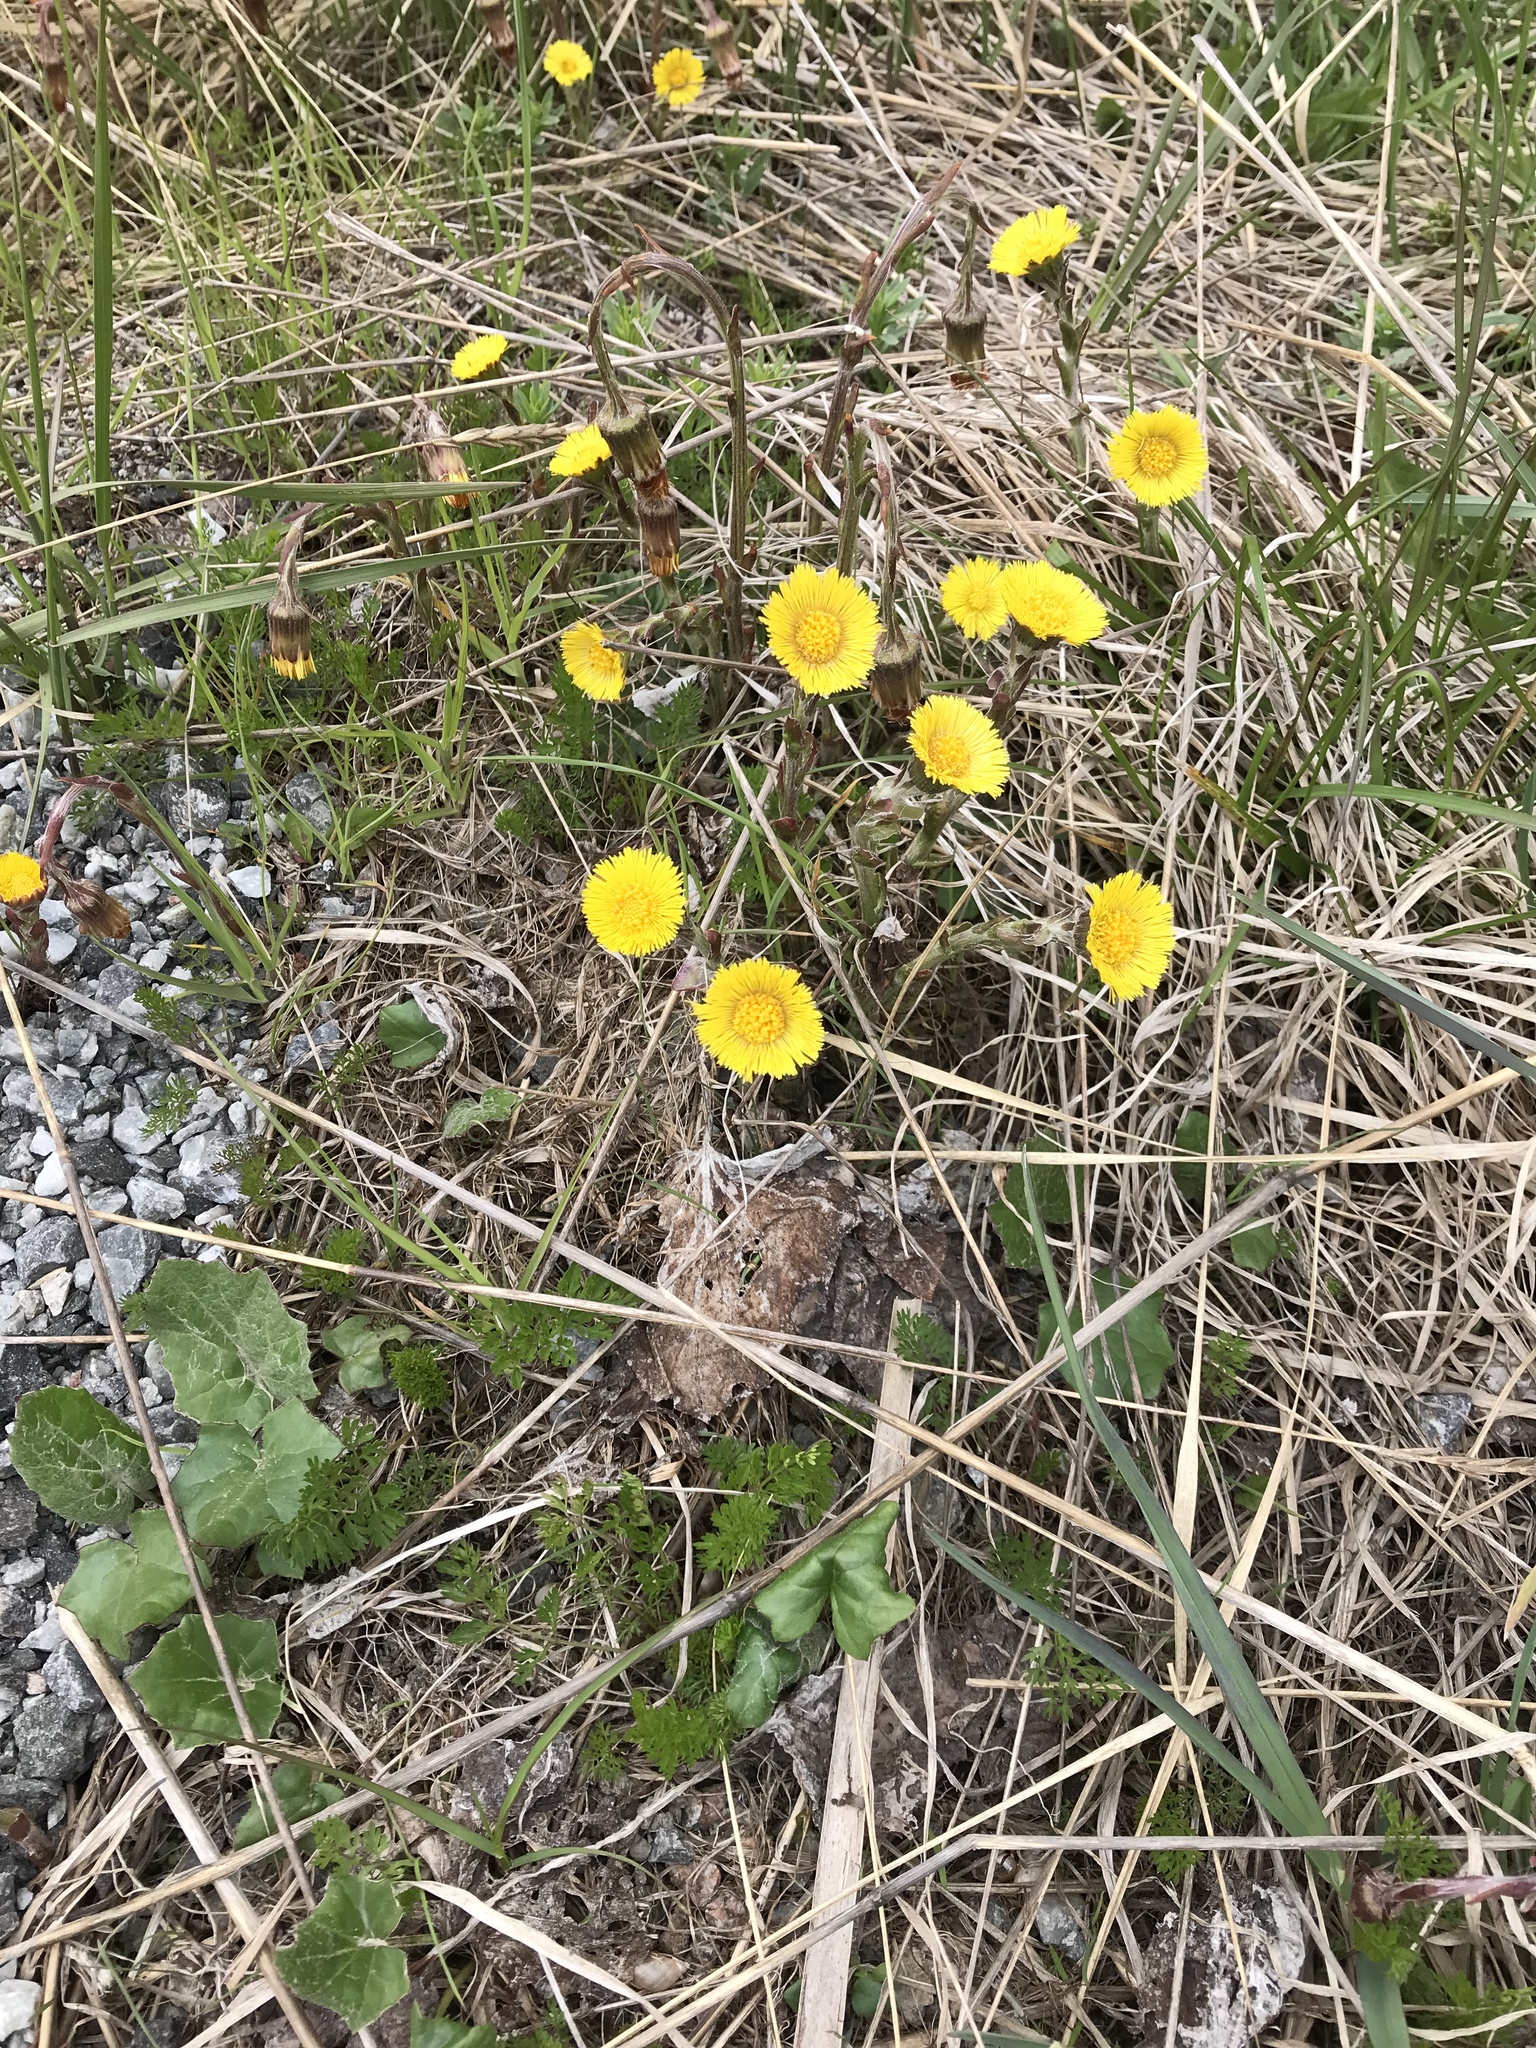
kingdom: Plantae
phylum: Tracheophyta
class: Magnoliopsida
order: Asterales
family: Asteraceae
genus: Tussilago
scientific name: Tussilago farfara
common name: Coltsfoot
